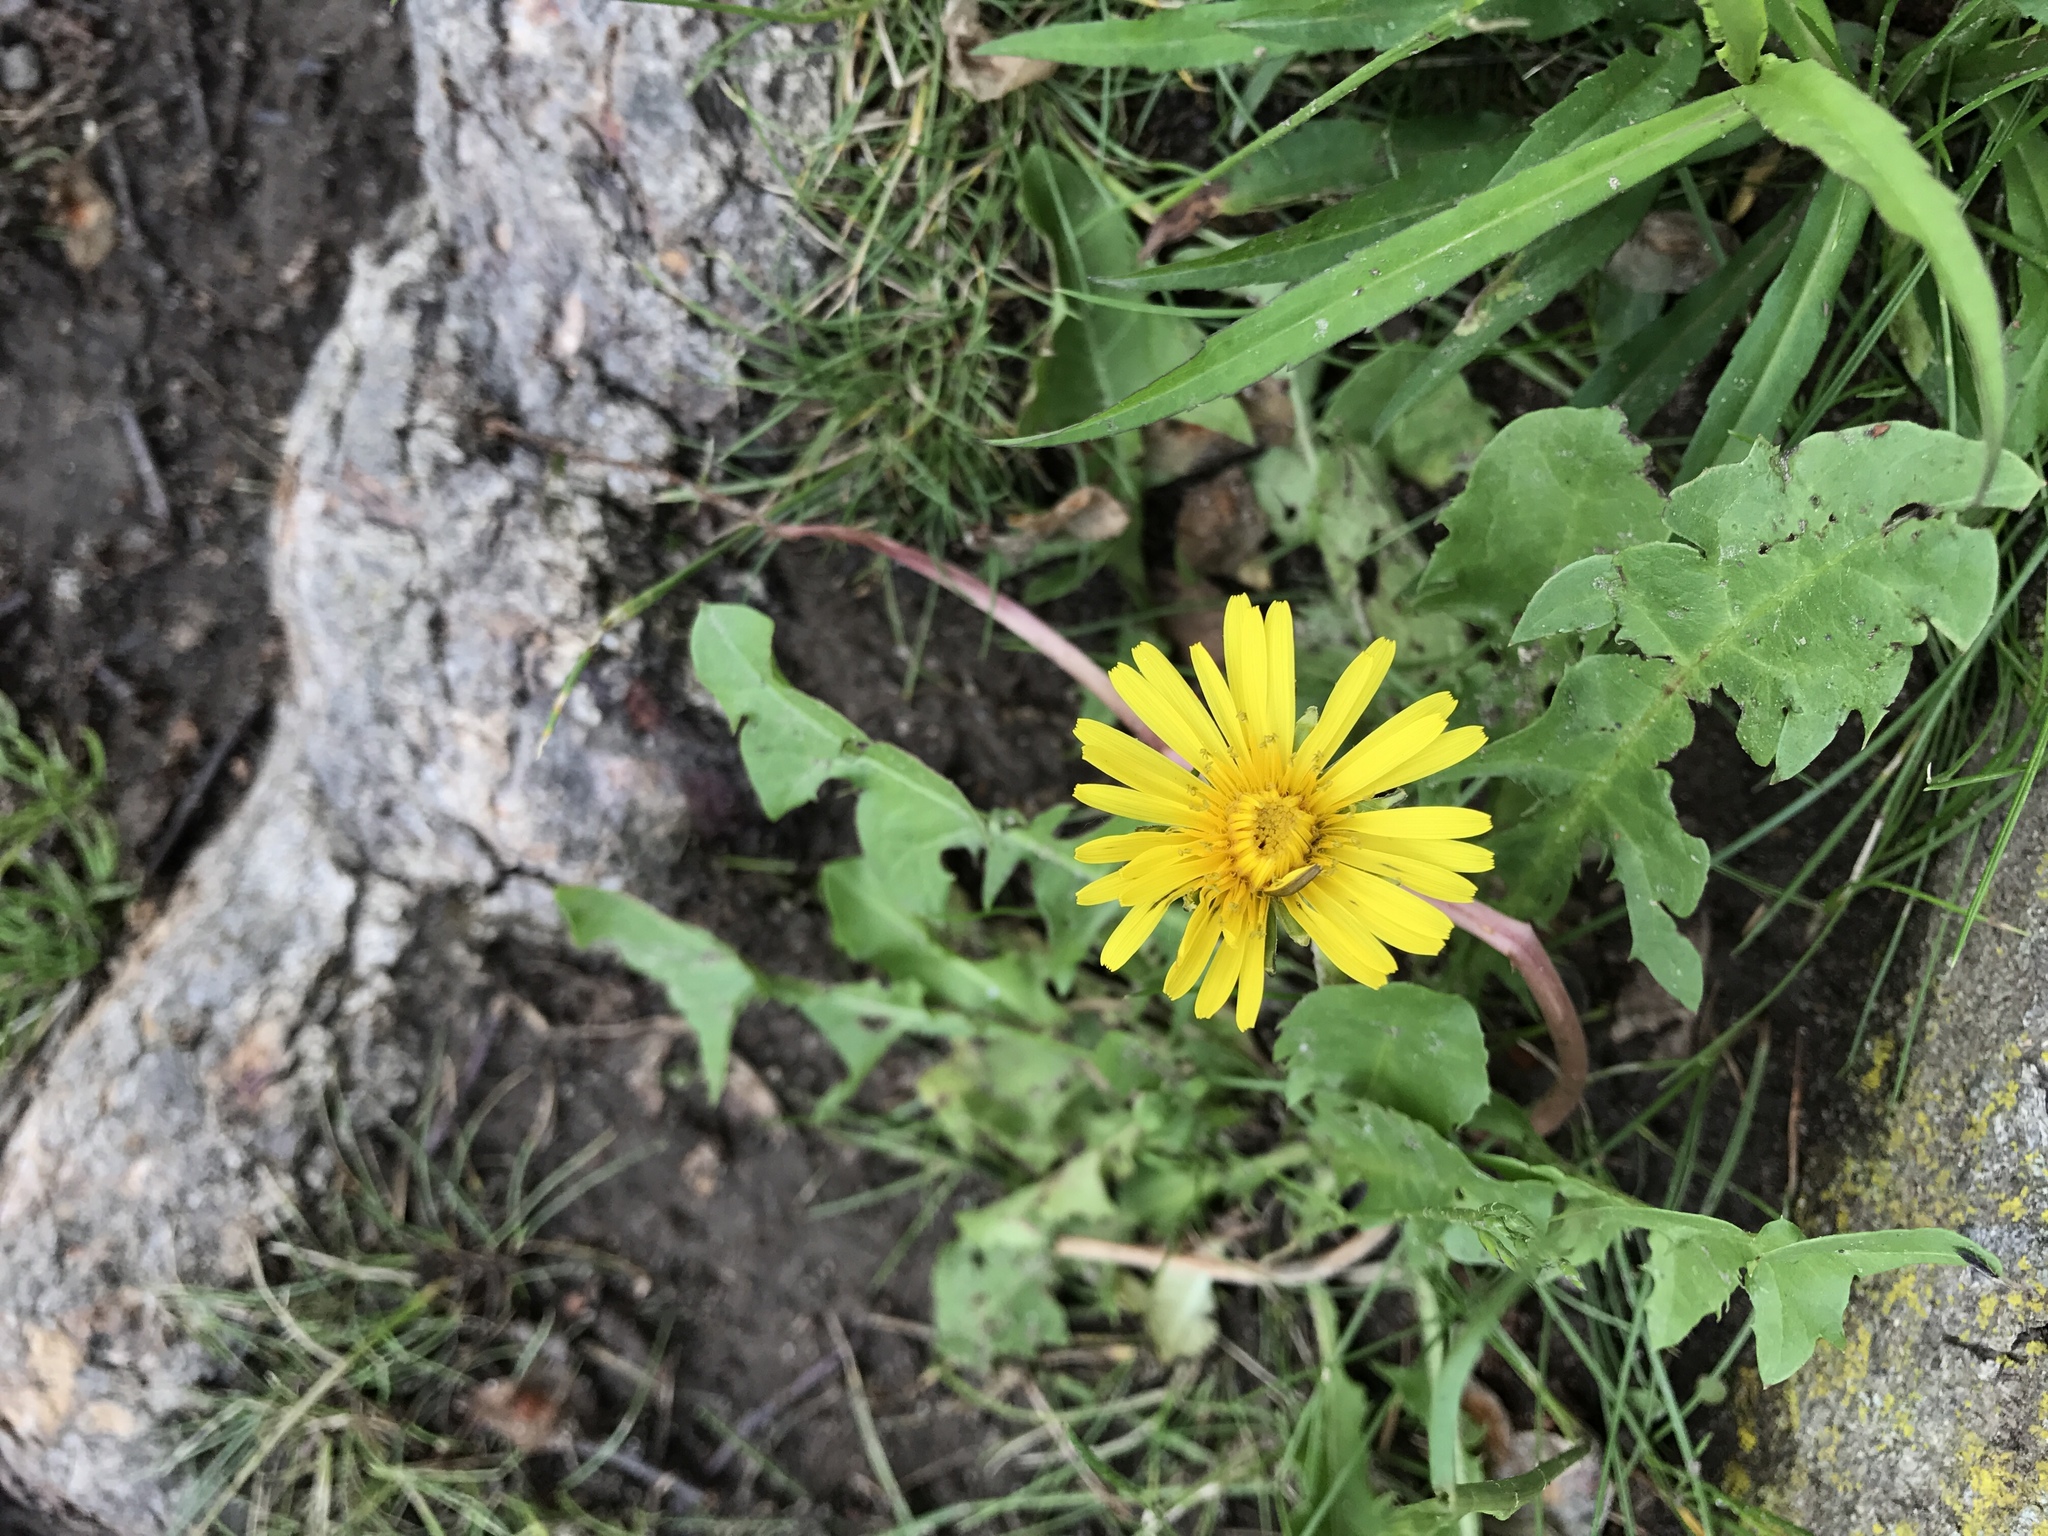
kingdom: Plantae
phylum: Tracheophyta
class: Magnoliopsida
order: Asterales
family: Asteraceae
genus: Taraxacum
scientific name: Taraxacum officinale
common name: Common dandelion
